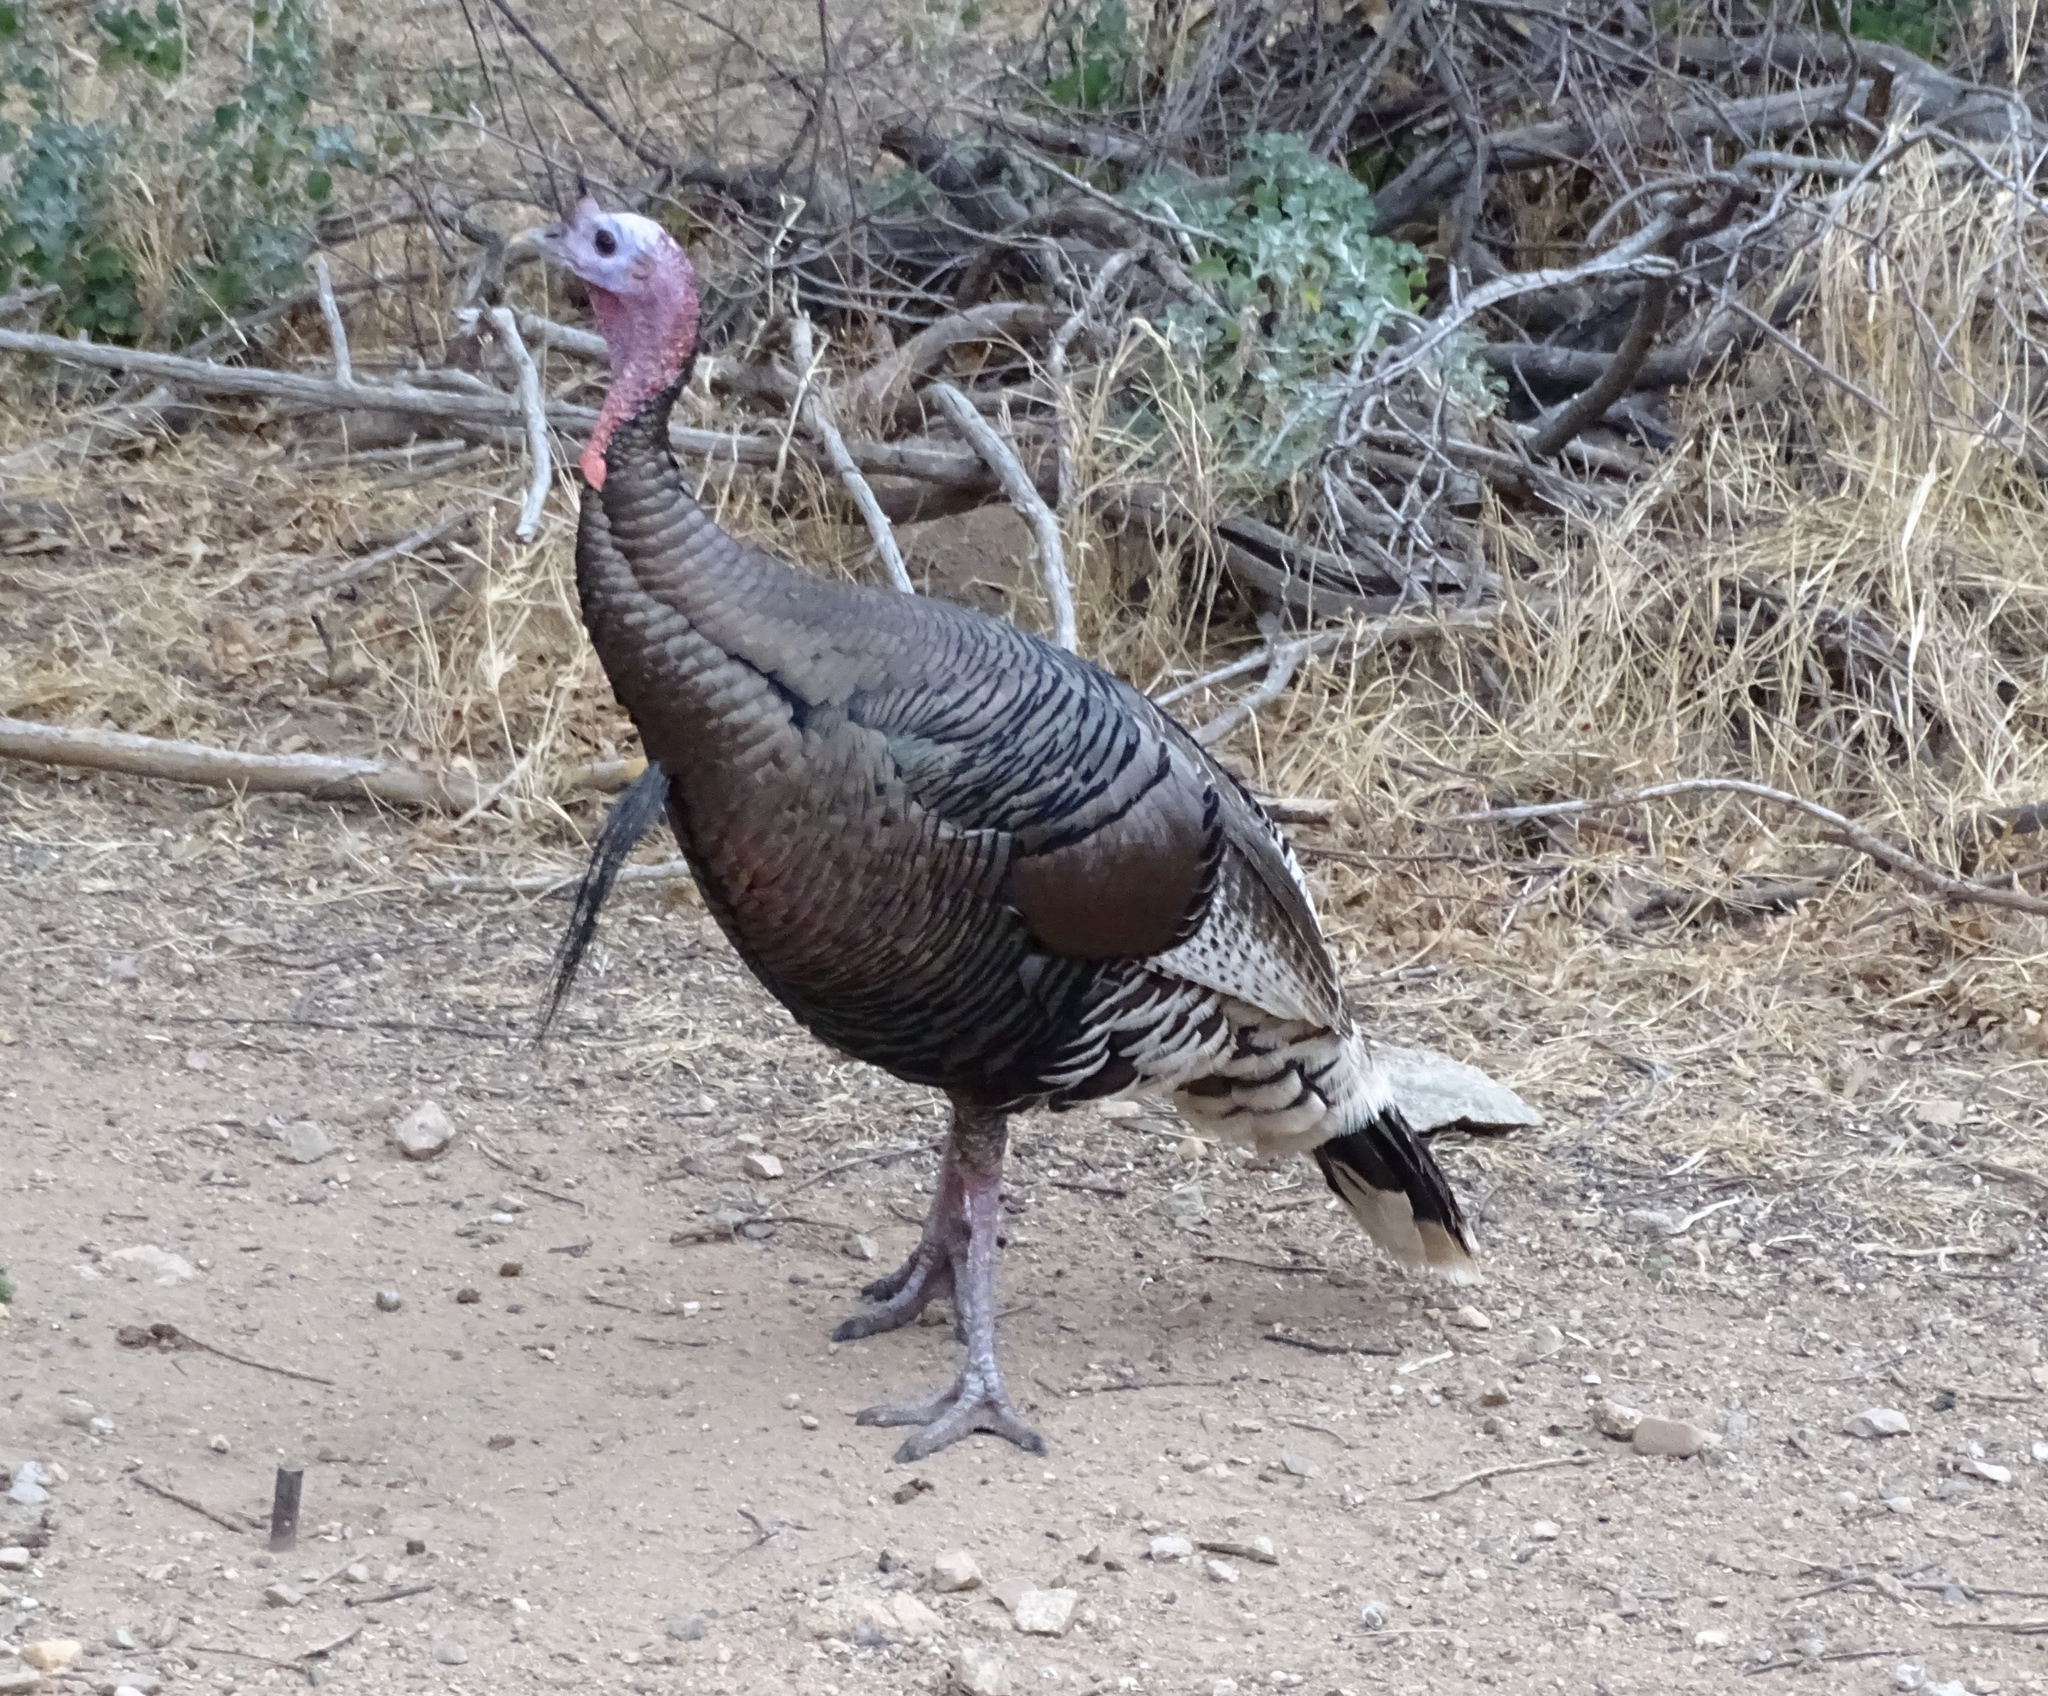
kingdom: Animalia
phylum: Chordata
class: Aves
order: Galliformes
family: Phasianidae
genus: Meleagris
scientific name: Meleagris gallopavo
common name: Wild turkey
